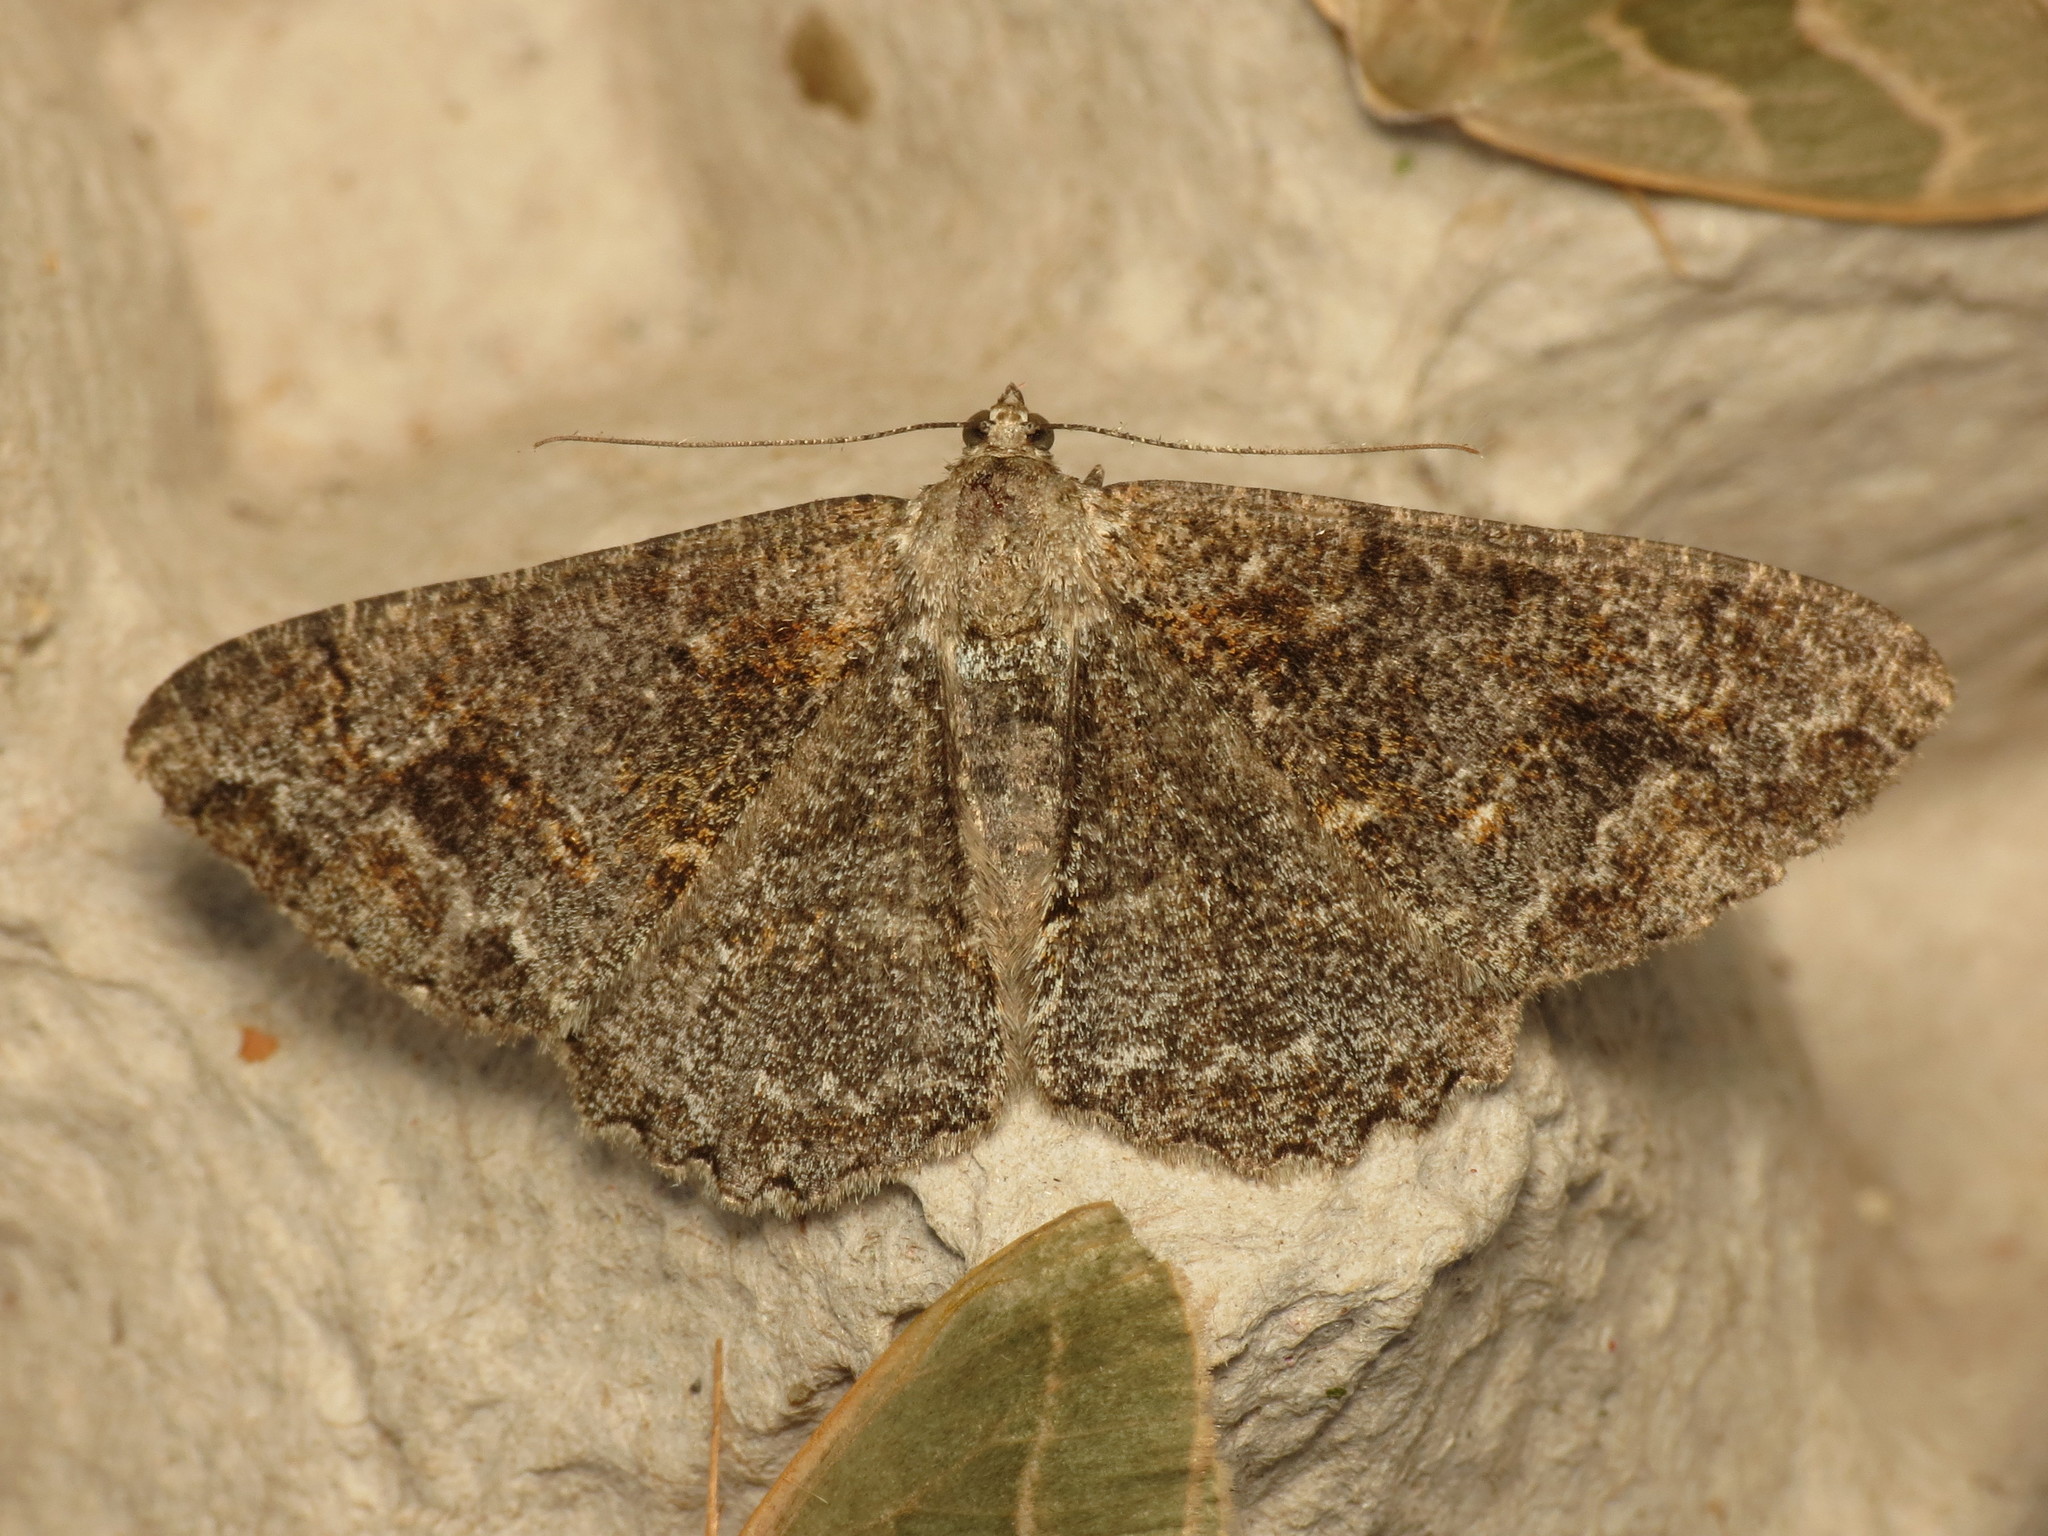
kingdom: Animalia
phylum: Arthropoda
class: Insecta
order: Lepidoptera
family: Geometridae
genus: Alcis
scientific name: Alcis repandata
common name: Mottled beauty
